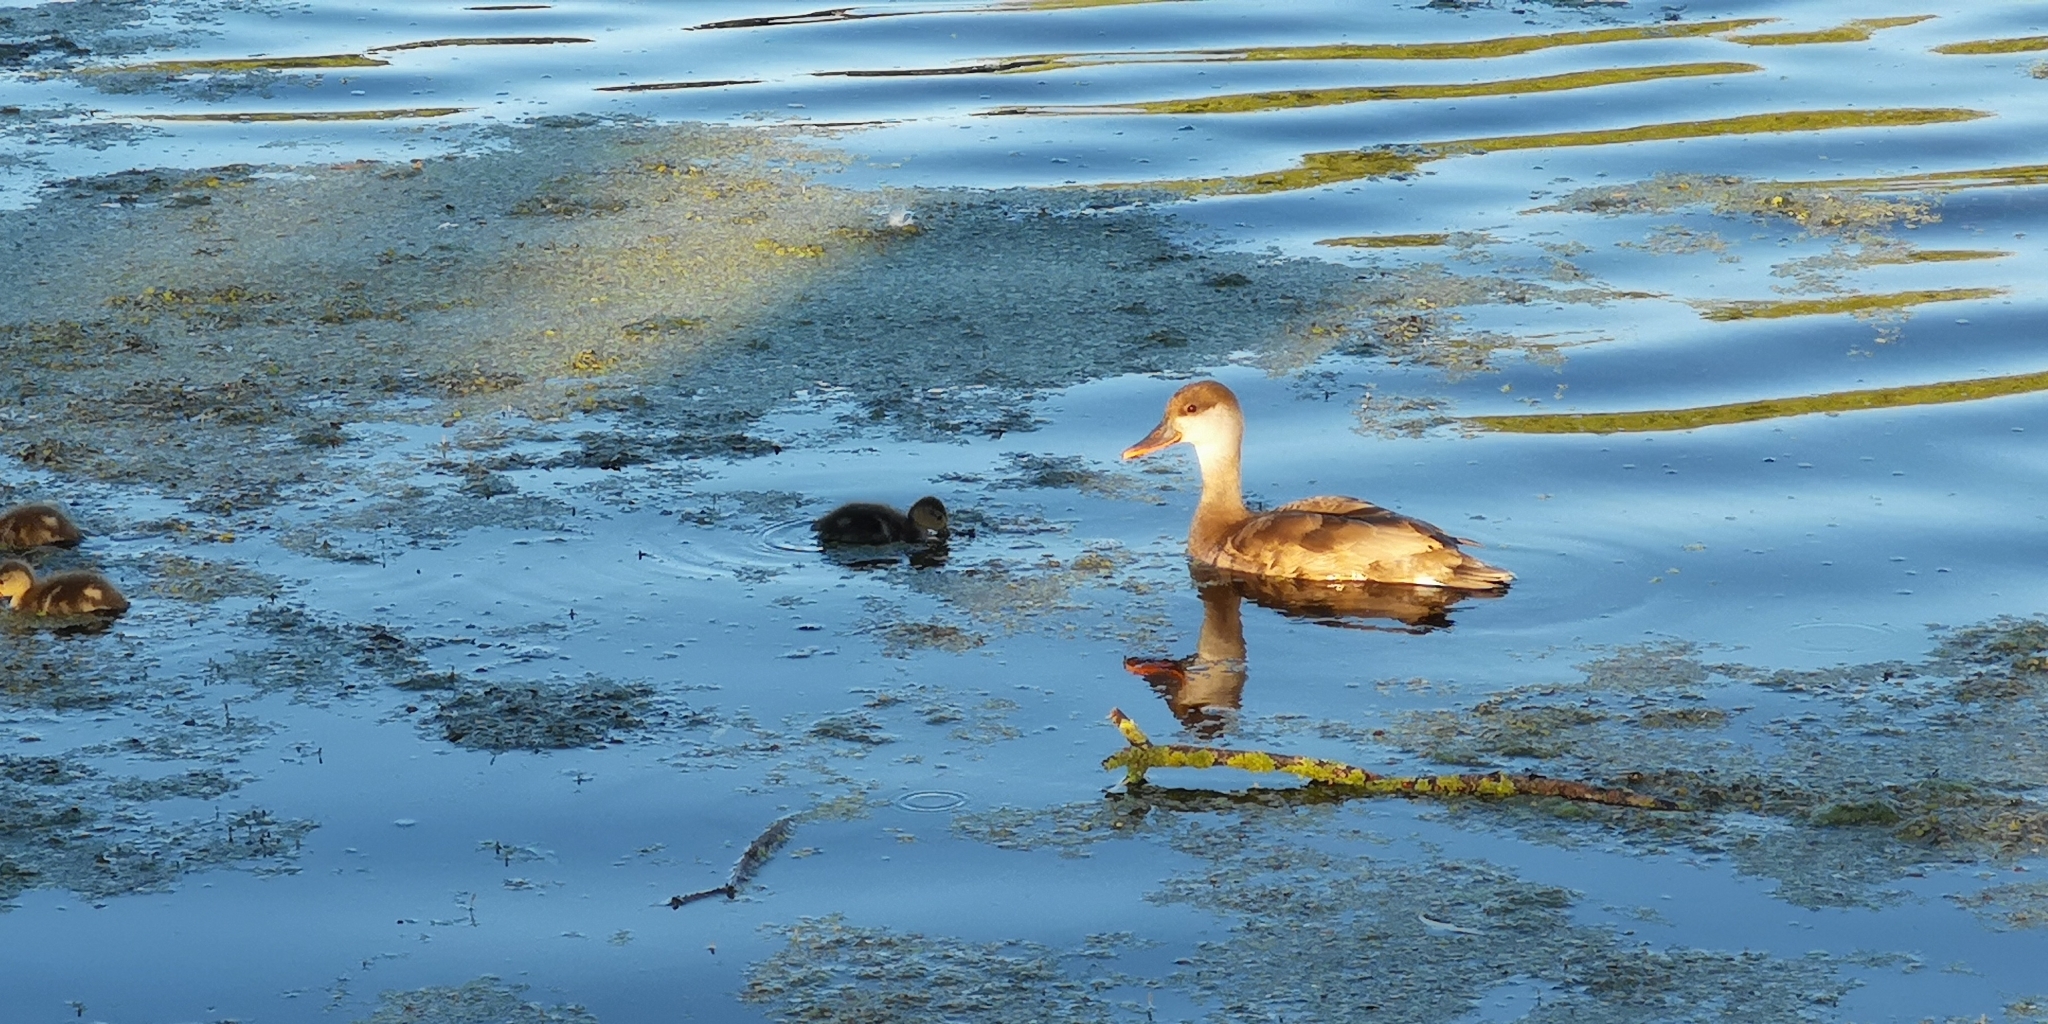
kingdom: Animalia
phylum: Chordata
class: Aves
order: Anseriformes
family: Anatidae
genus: Netta
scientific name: Netta rufina
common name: Red-crested pochard
